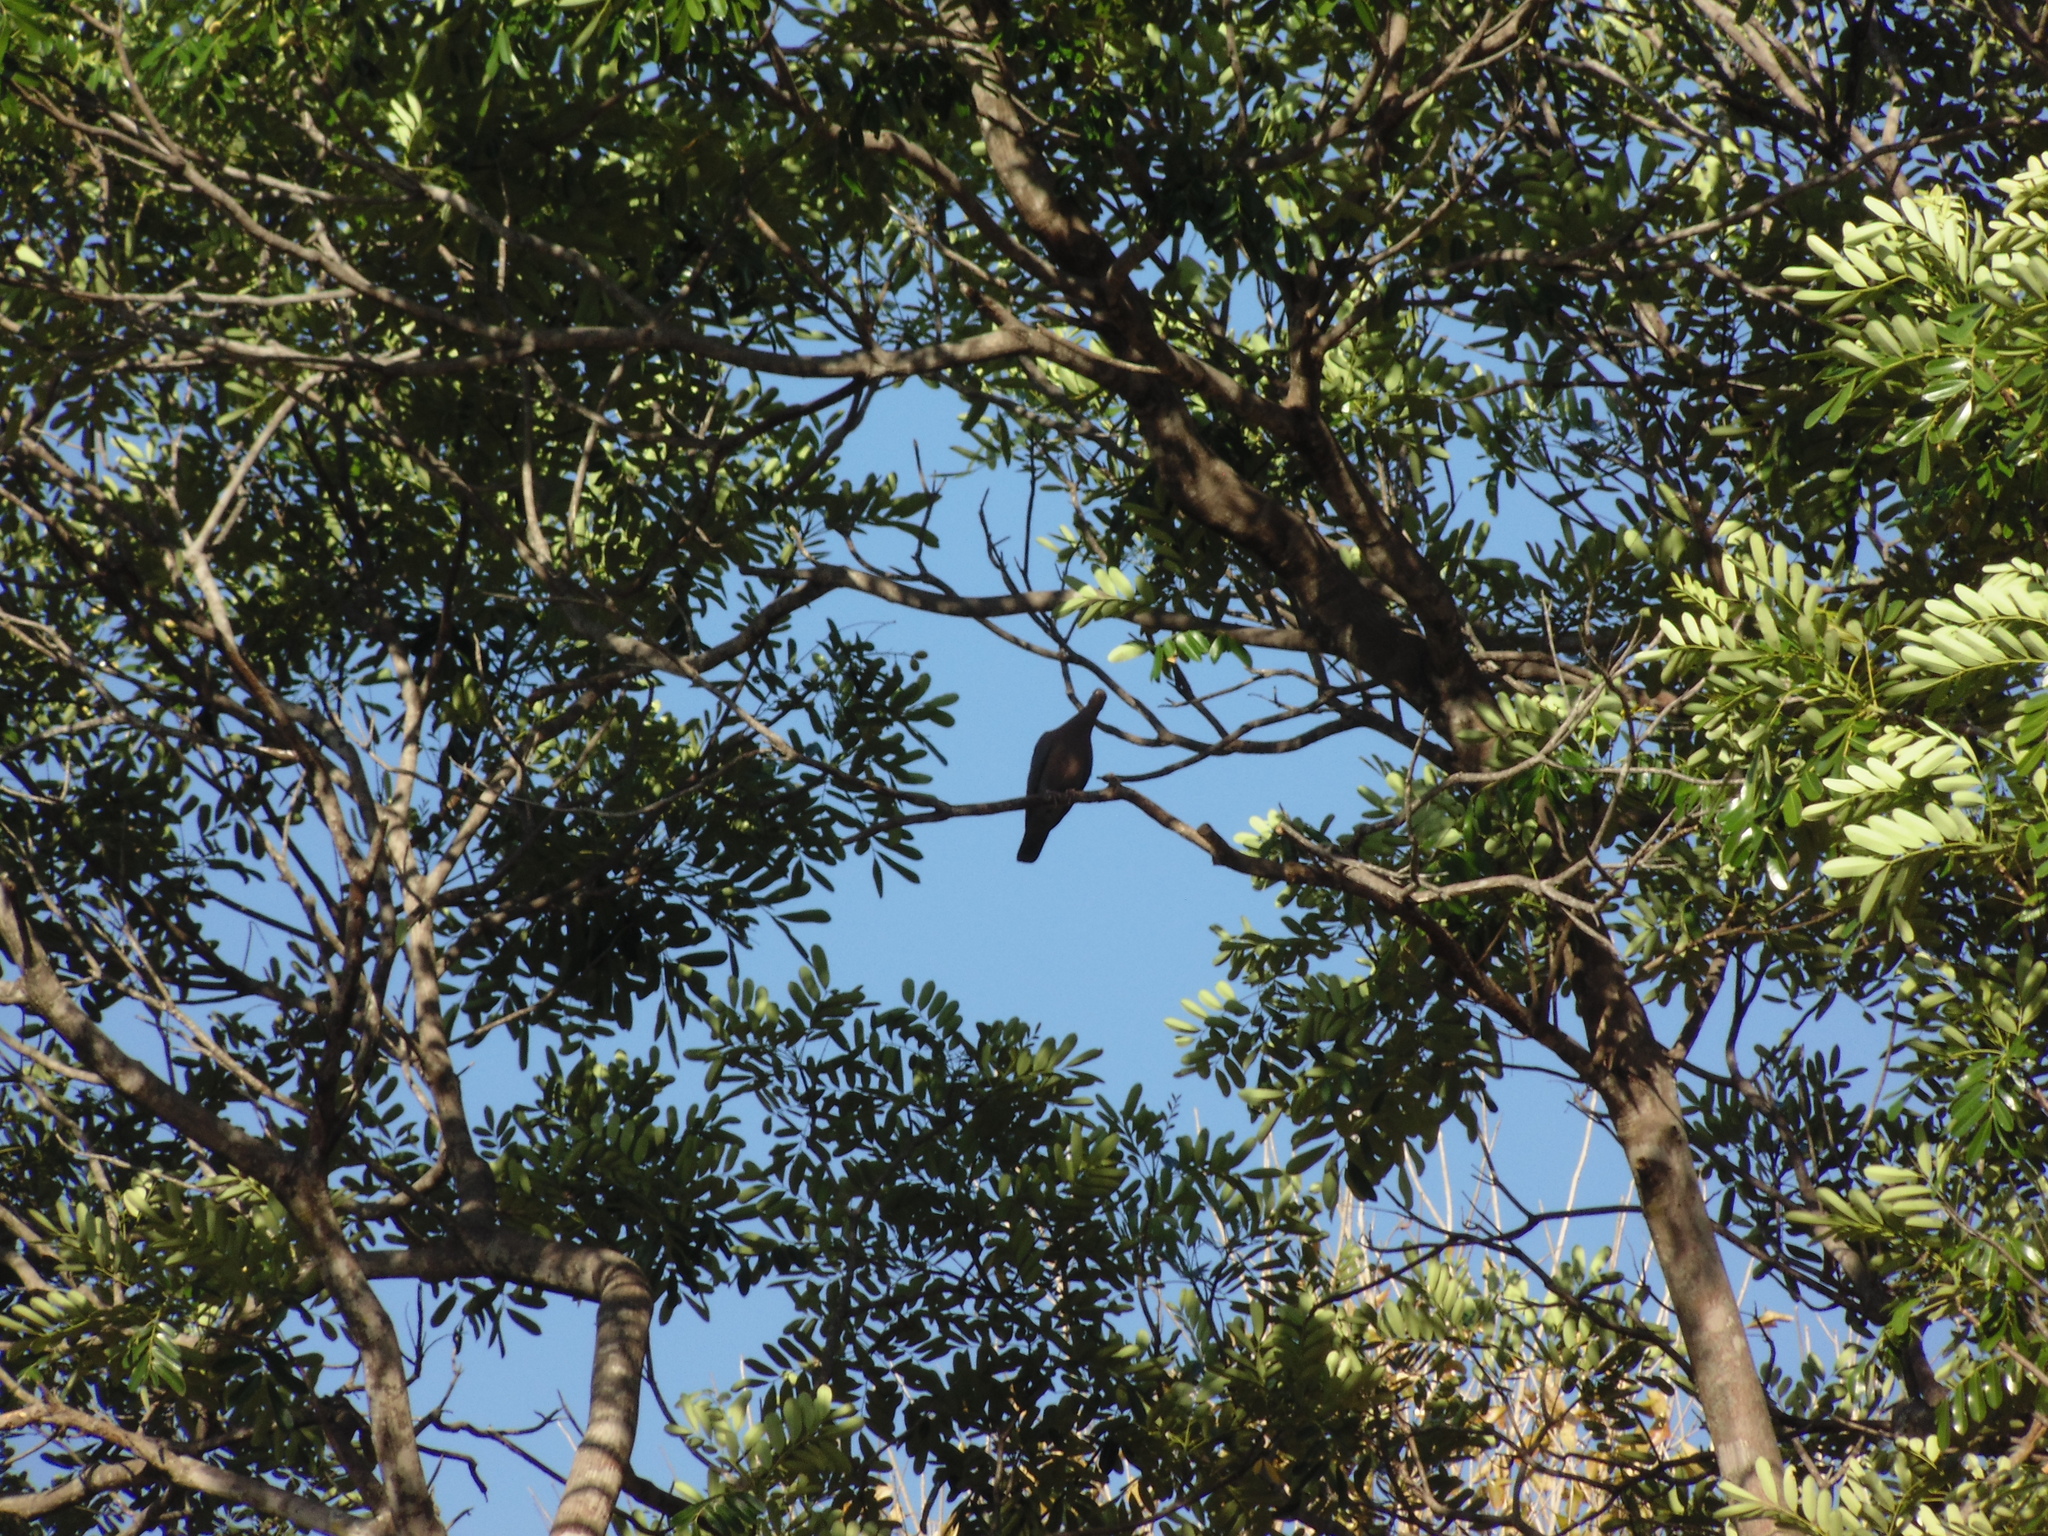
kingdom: Animalia
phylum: Chordata
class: Aves
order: Columbiformes
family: Columbidae
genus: Patagioenas
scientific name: Patagioenas flavirostris
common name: Red-billed pigeon
